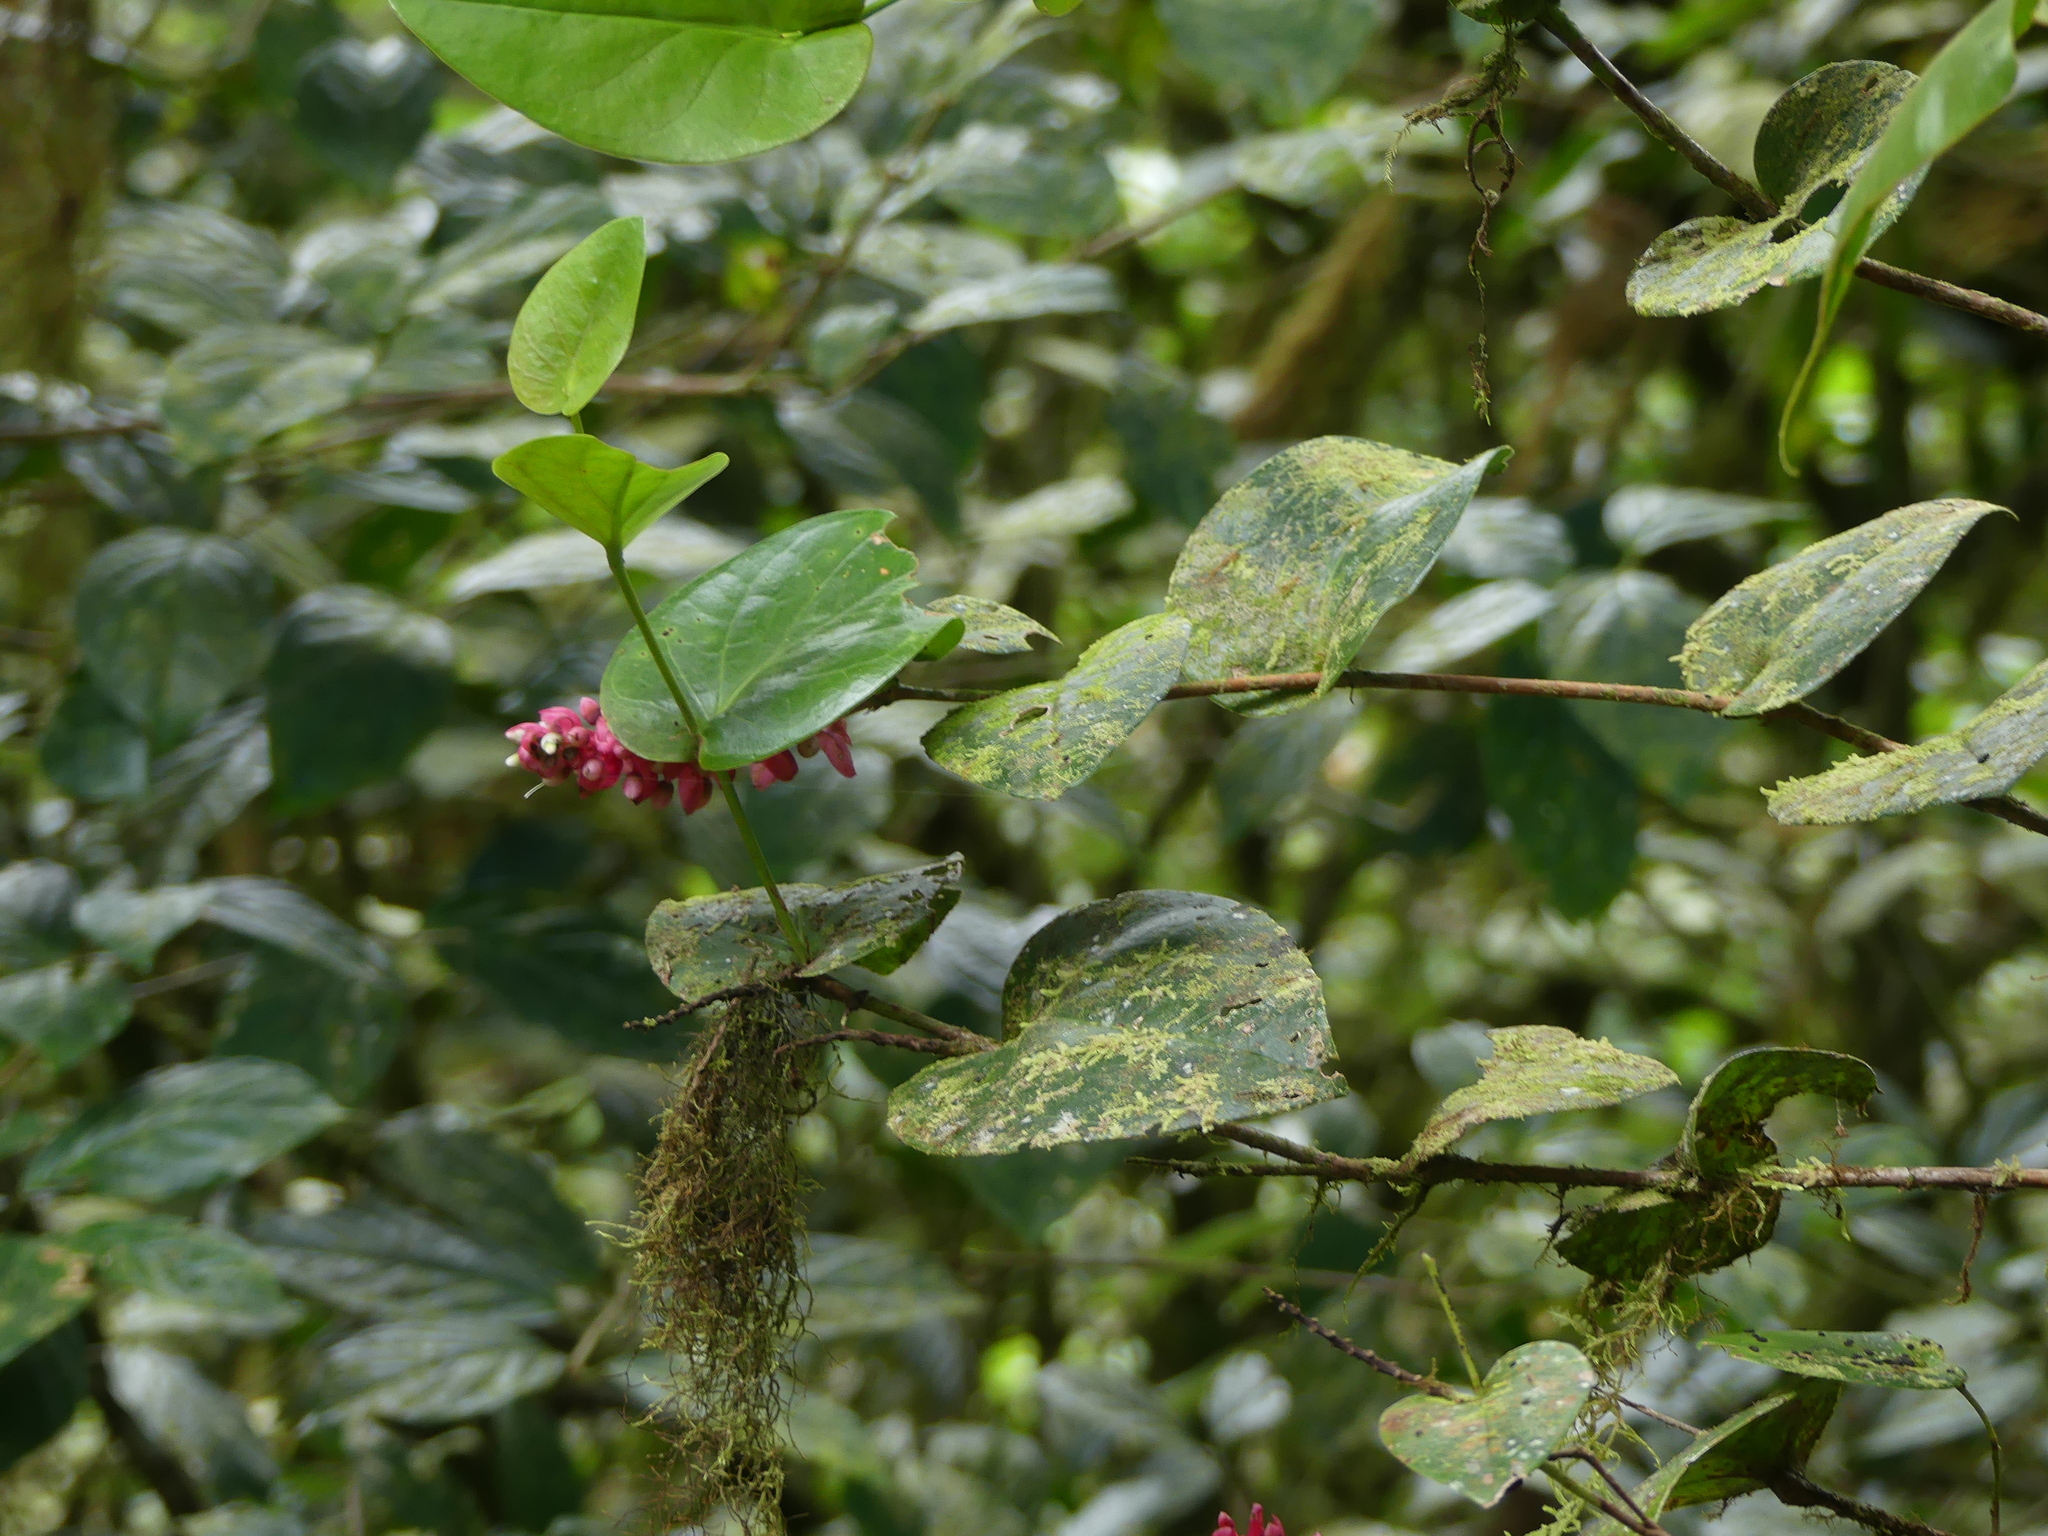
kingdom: Plantae
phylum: Tracheophyta
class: Magnoliopsida
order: Ericales
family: Ericaceae
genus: Cavendishia
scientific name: Cavendishia complectens
